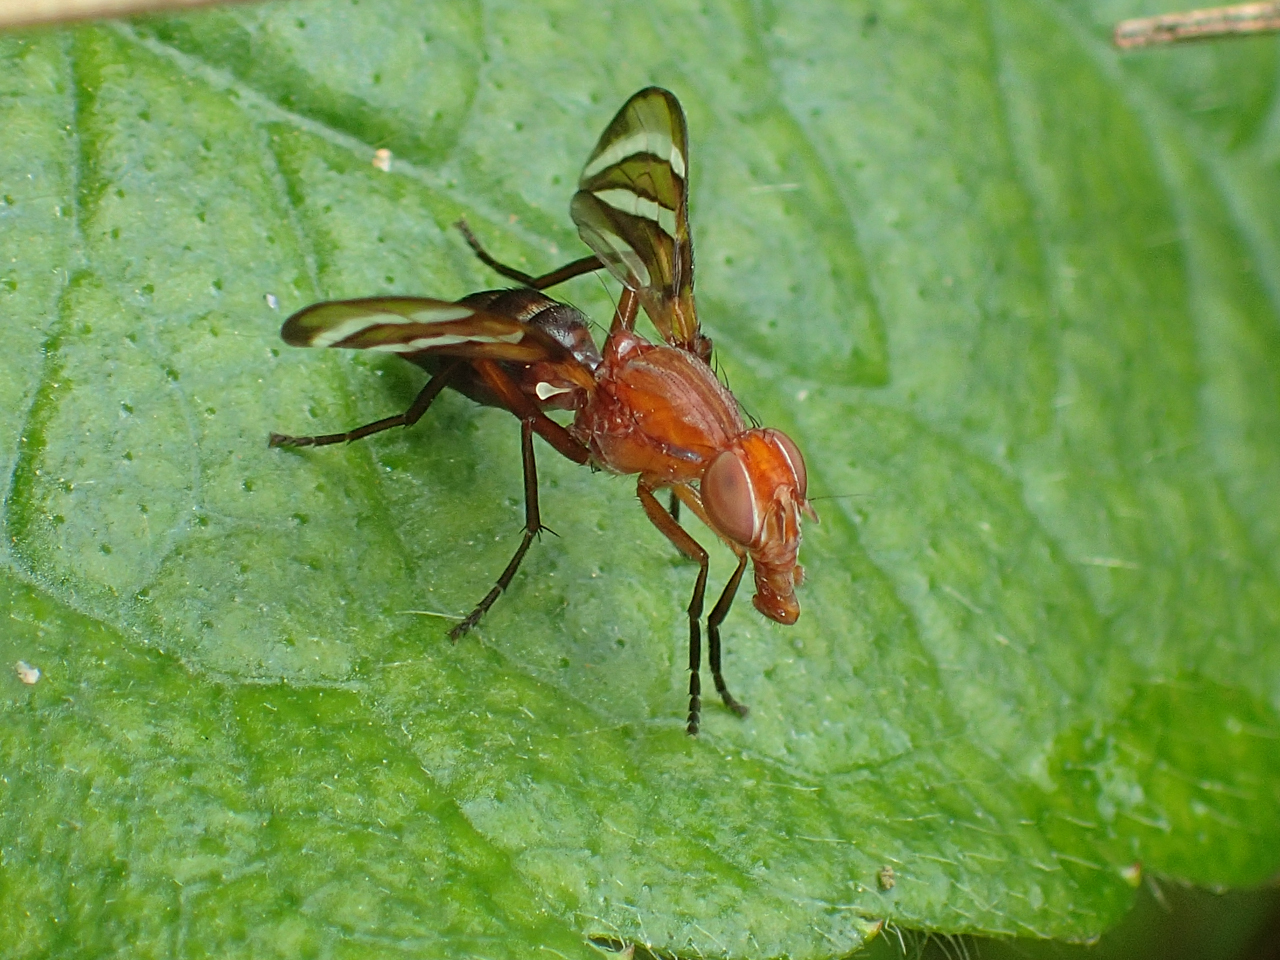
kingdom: Animalia
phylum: Arthropoda
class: Insecta
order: Diptera
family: Ulidiidae
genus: Tritoxa
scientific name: Tritoxa incurva
